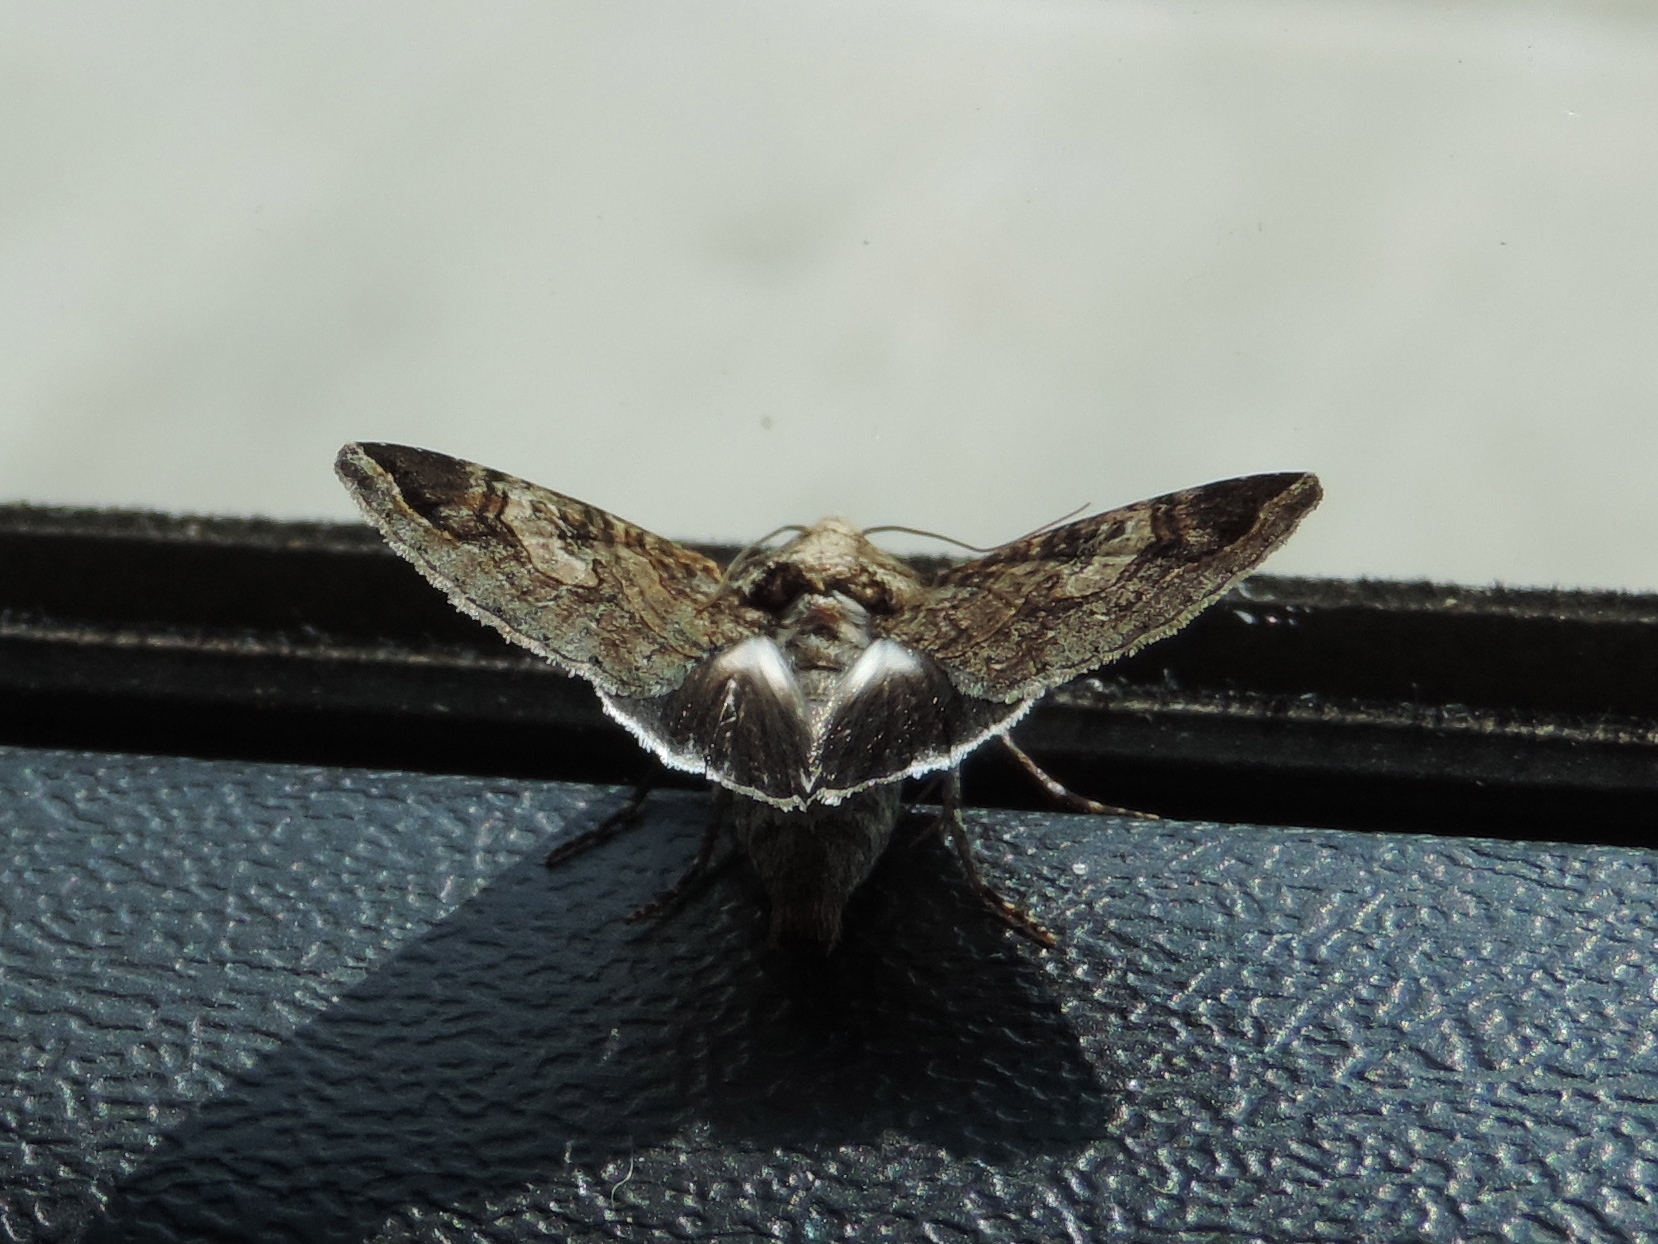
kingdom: Animalia
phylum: Arthropoda
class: Insecta
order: Lepidoptera
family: Erebidae
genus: Melipotis
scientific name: Melipotis jucunda
